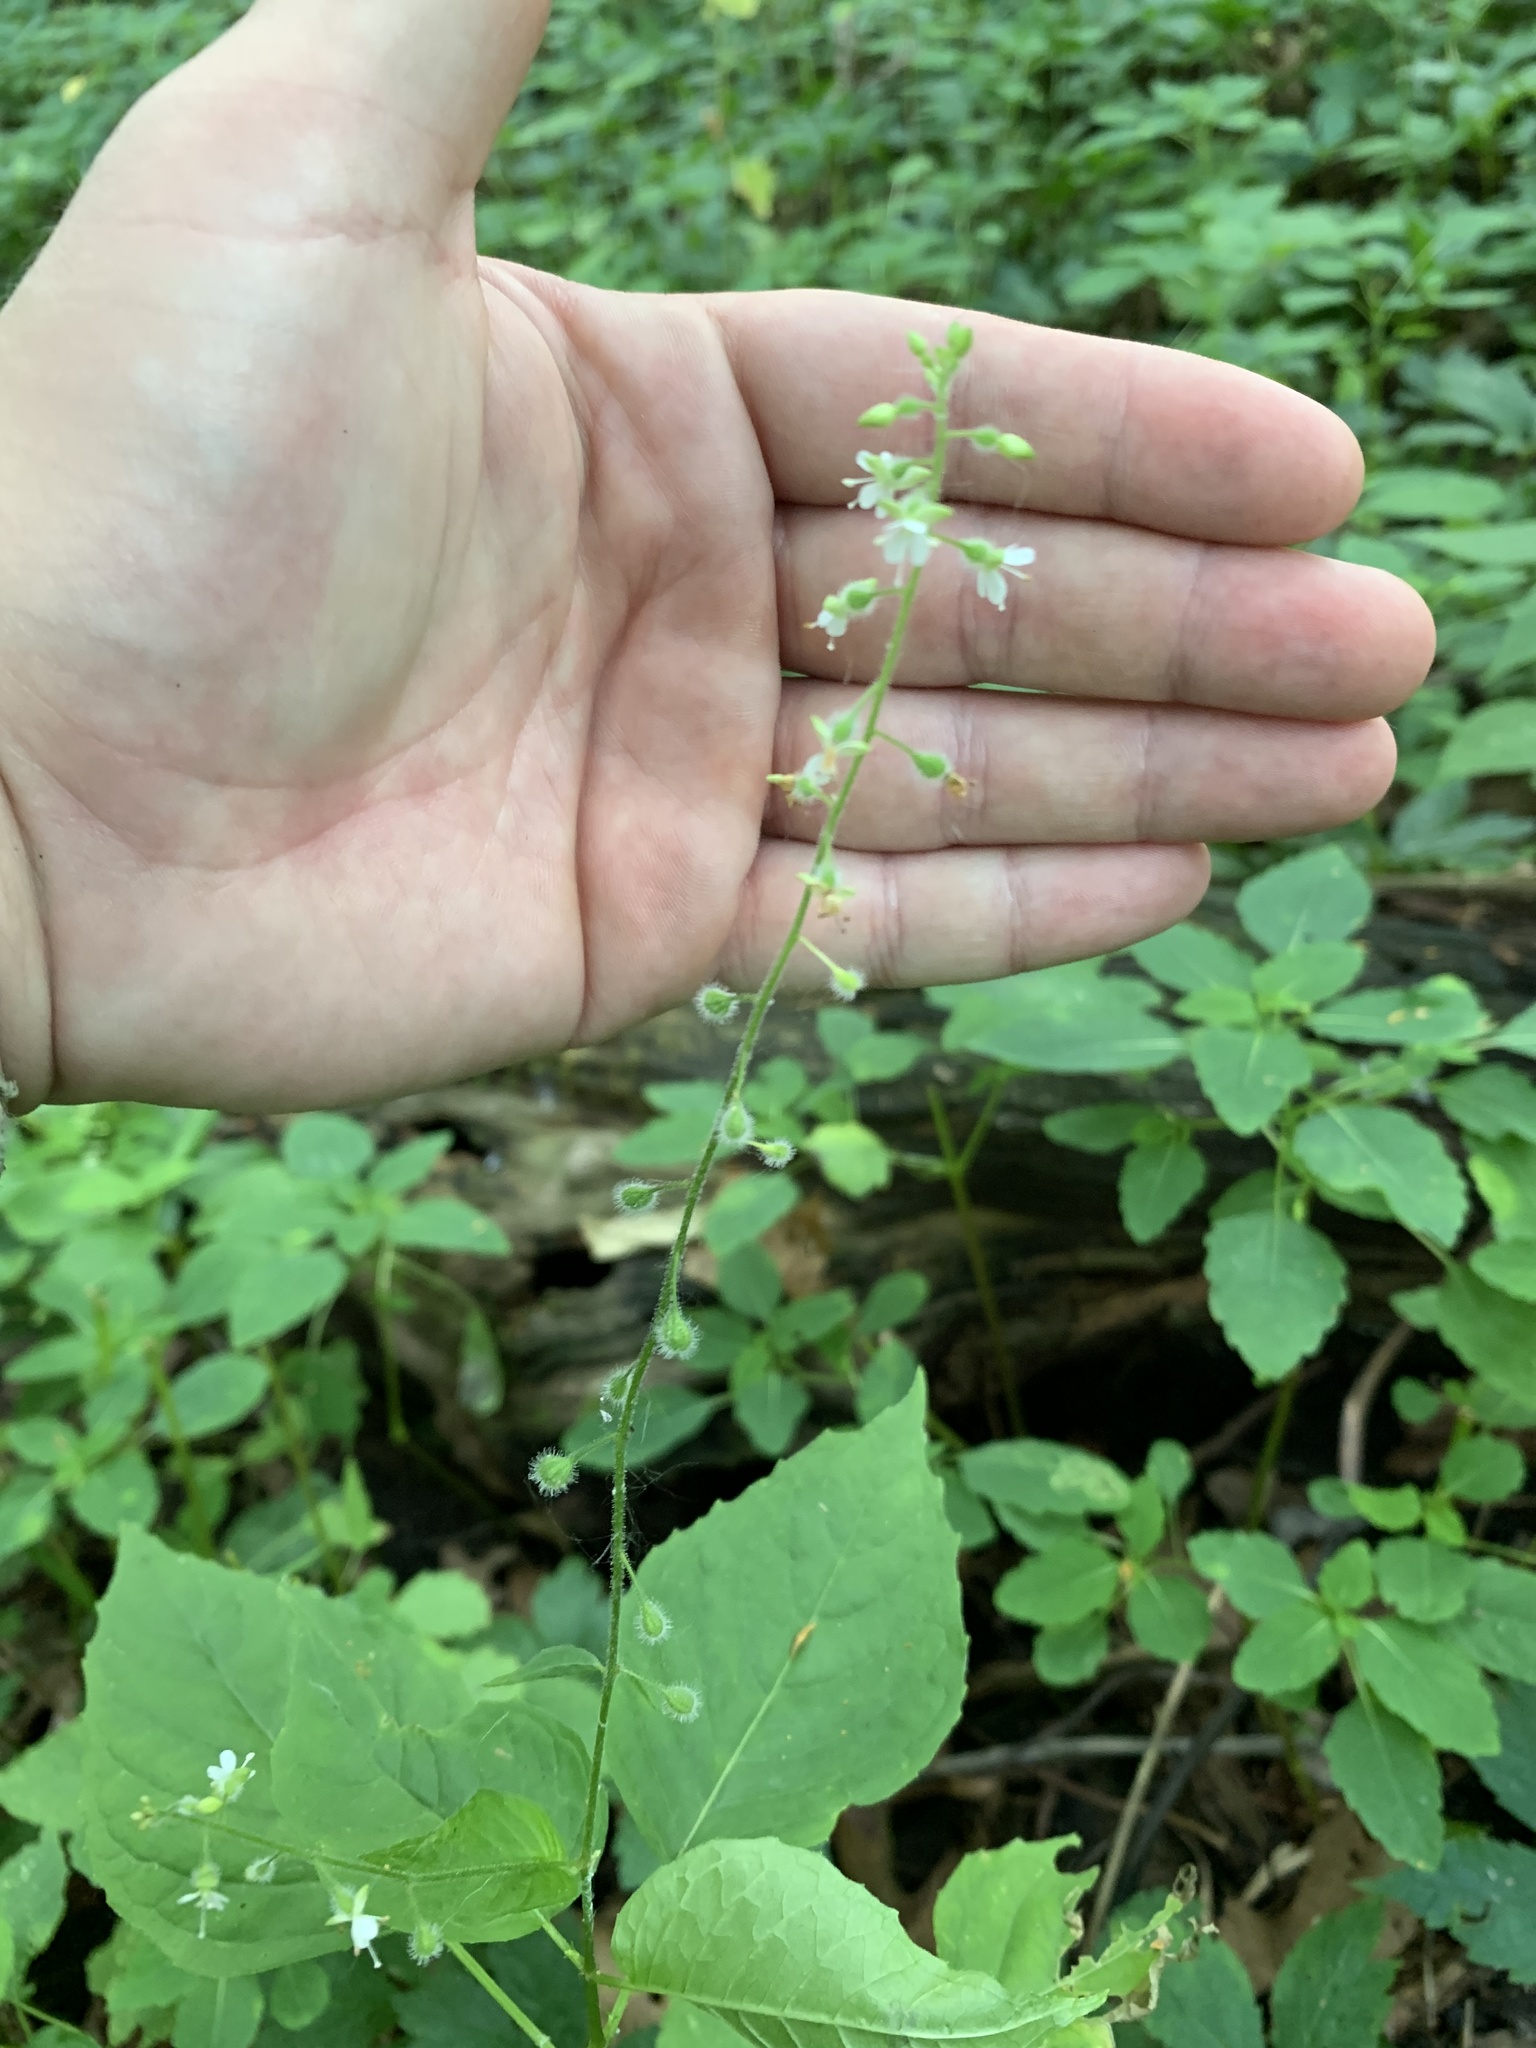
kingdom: Plantae
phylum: Tracheophyta
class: Magnoliopsida
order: Myrtales
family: Onagraceae
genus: Circaea
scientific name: Circaea canadensis
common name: Broad-leaved enchanter's nightshade
